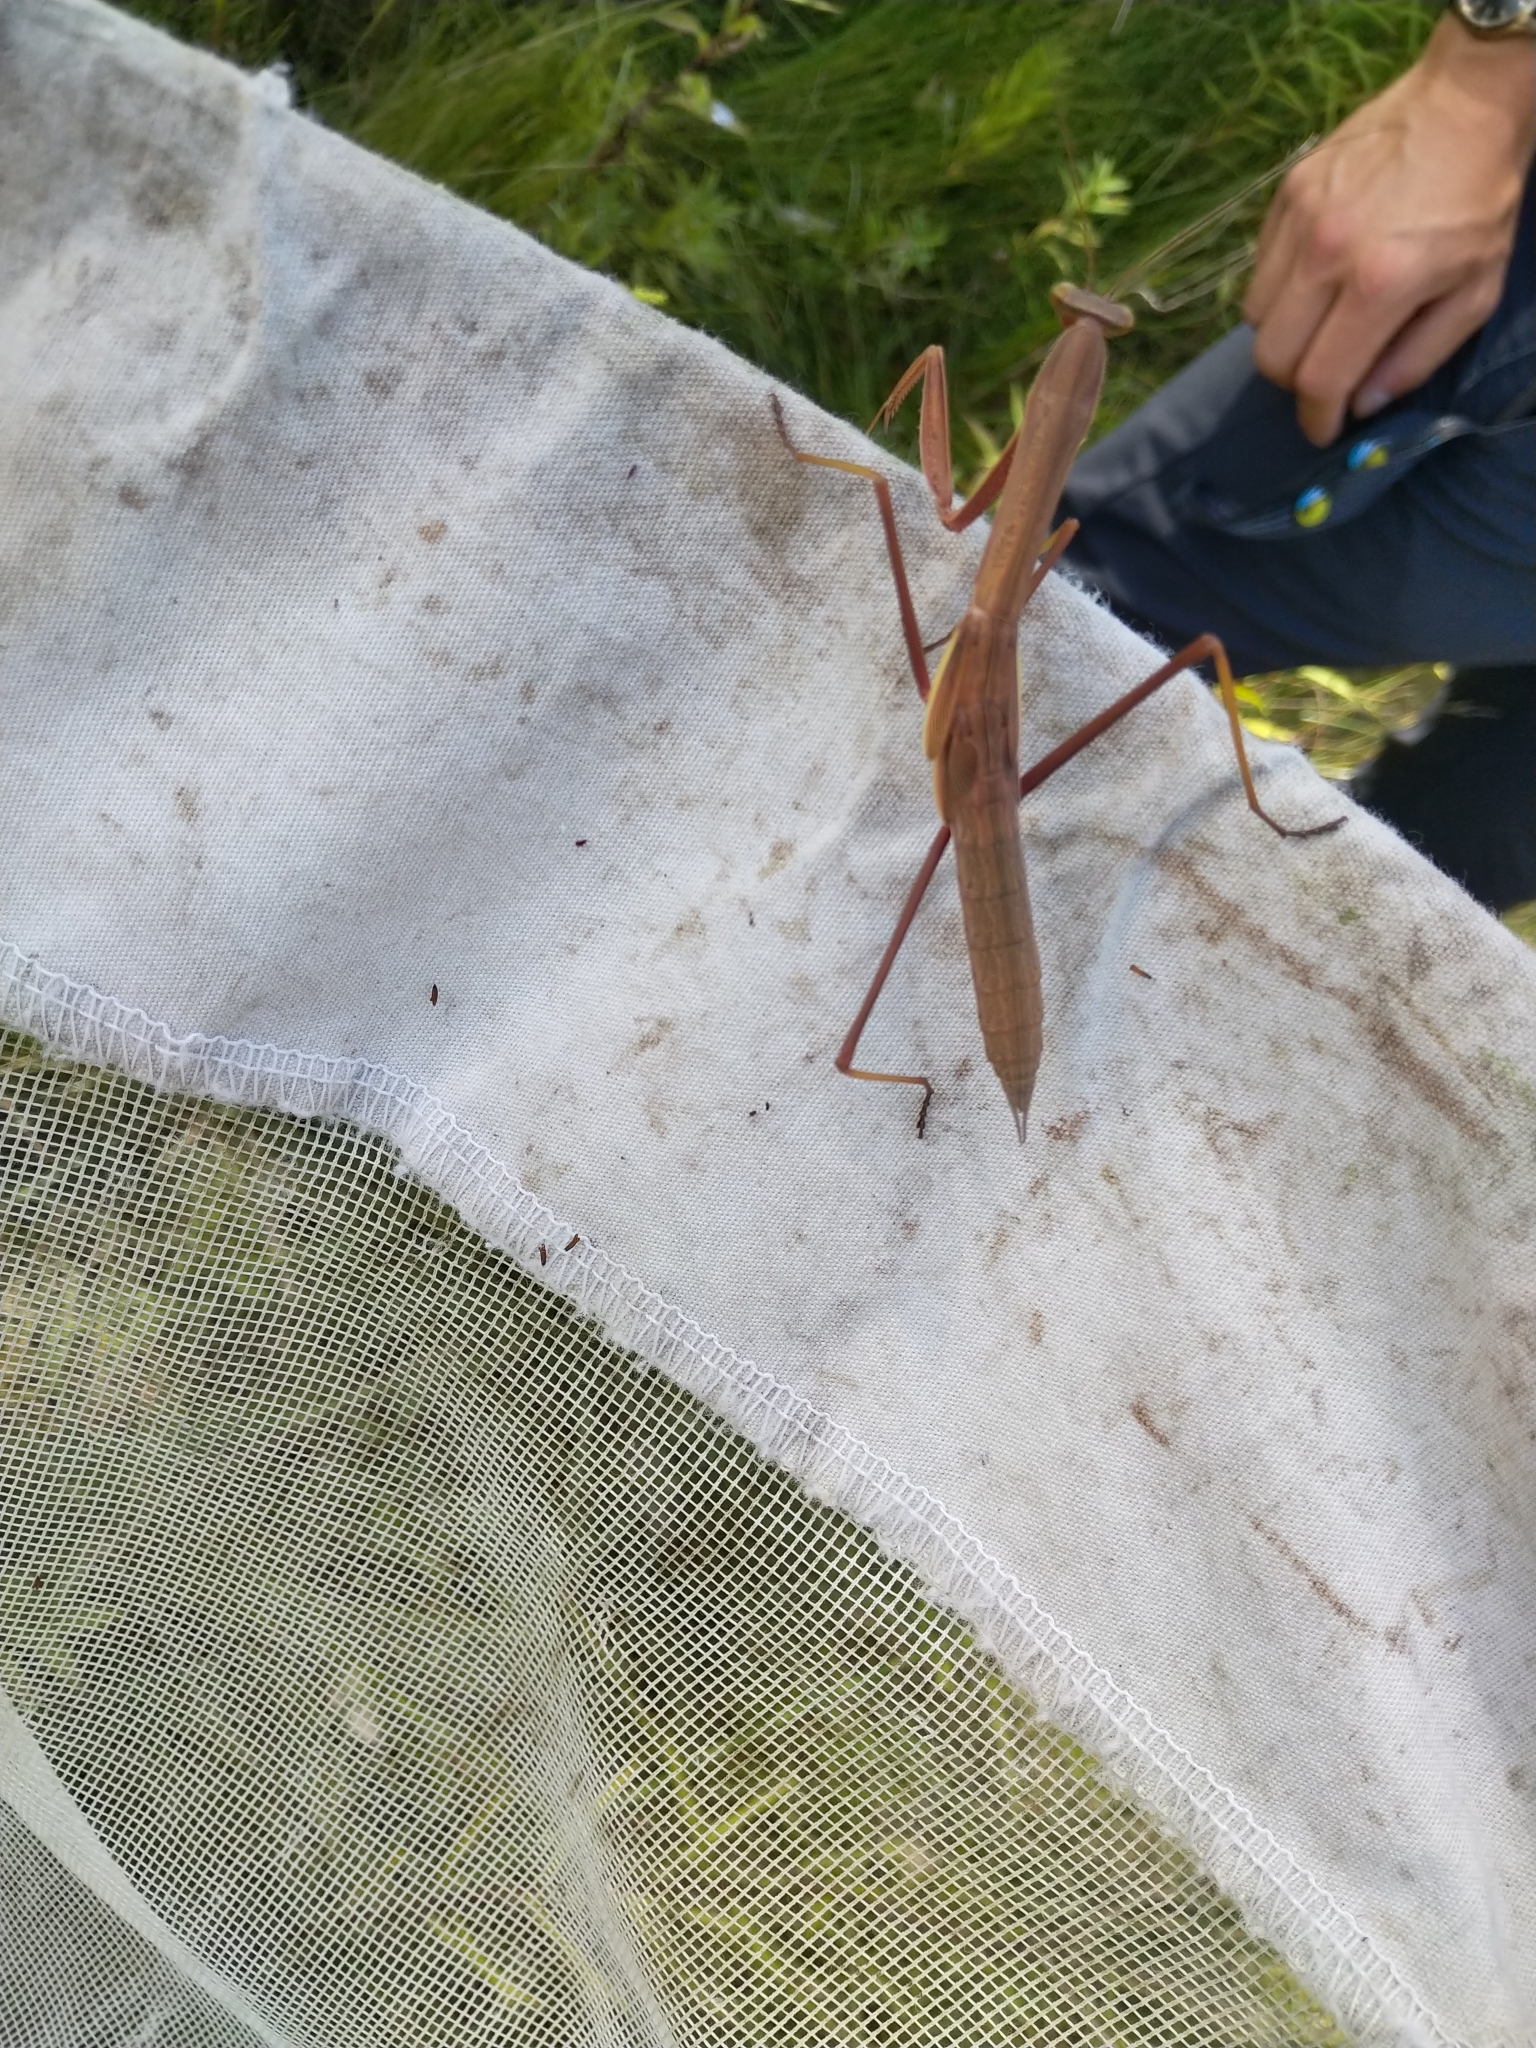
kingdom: Animalia
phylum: Arthropoda
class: Insecta
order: Mantodea
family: Mantidae
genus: Tenodera
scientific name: Tenodera sinensis
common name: Chinese mantis
